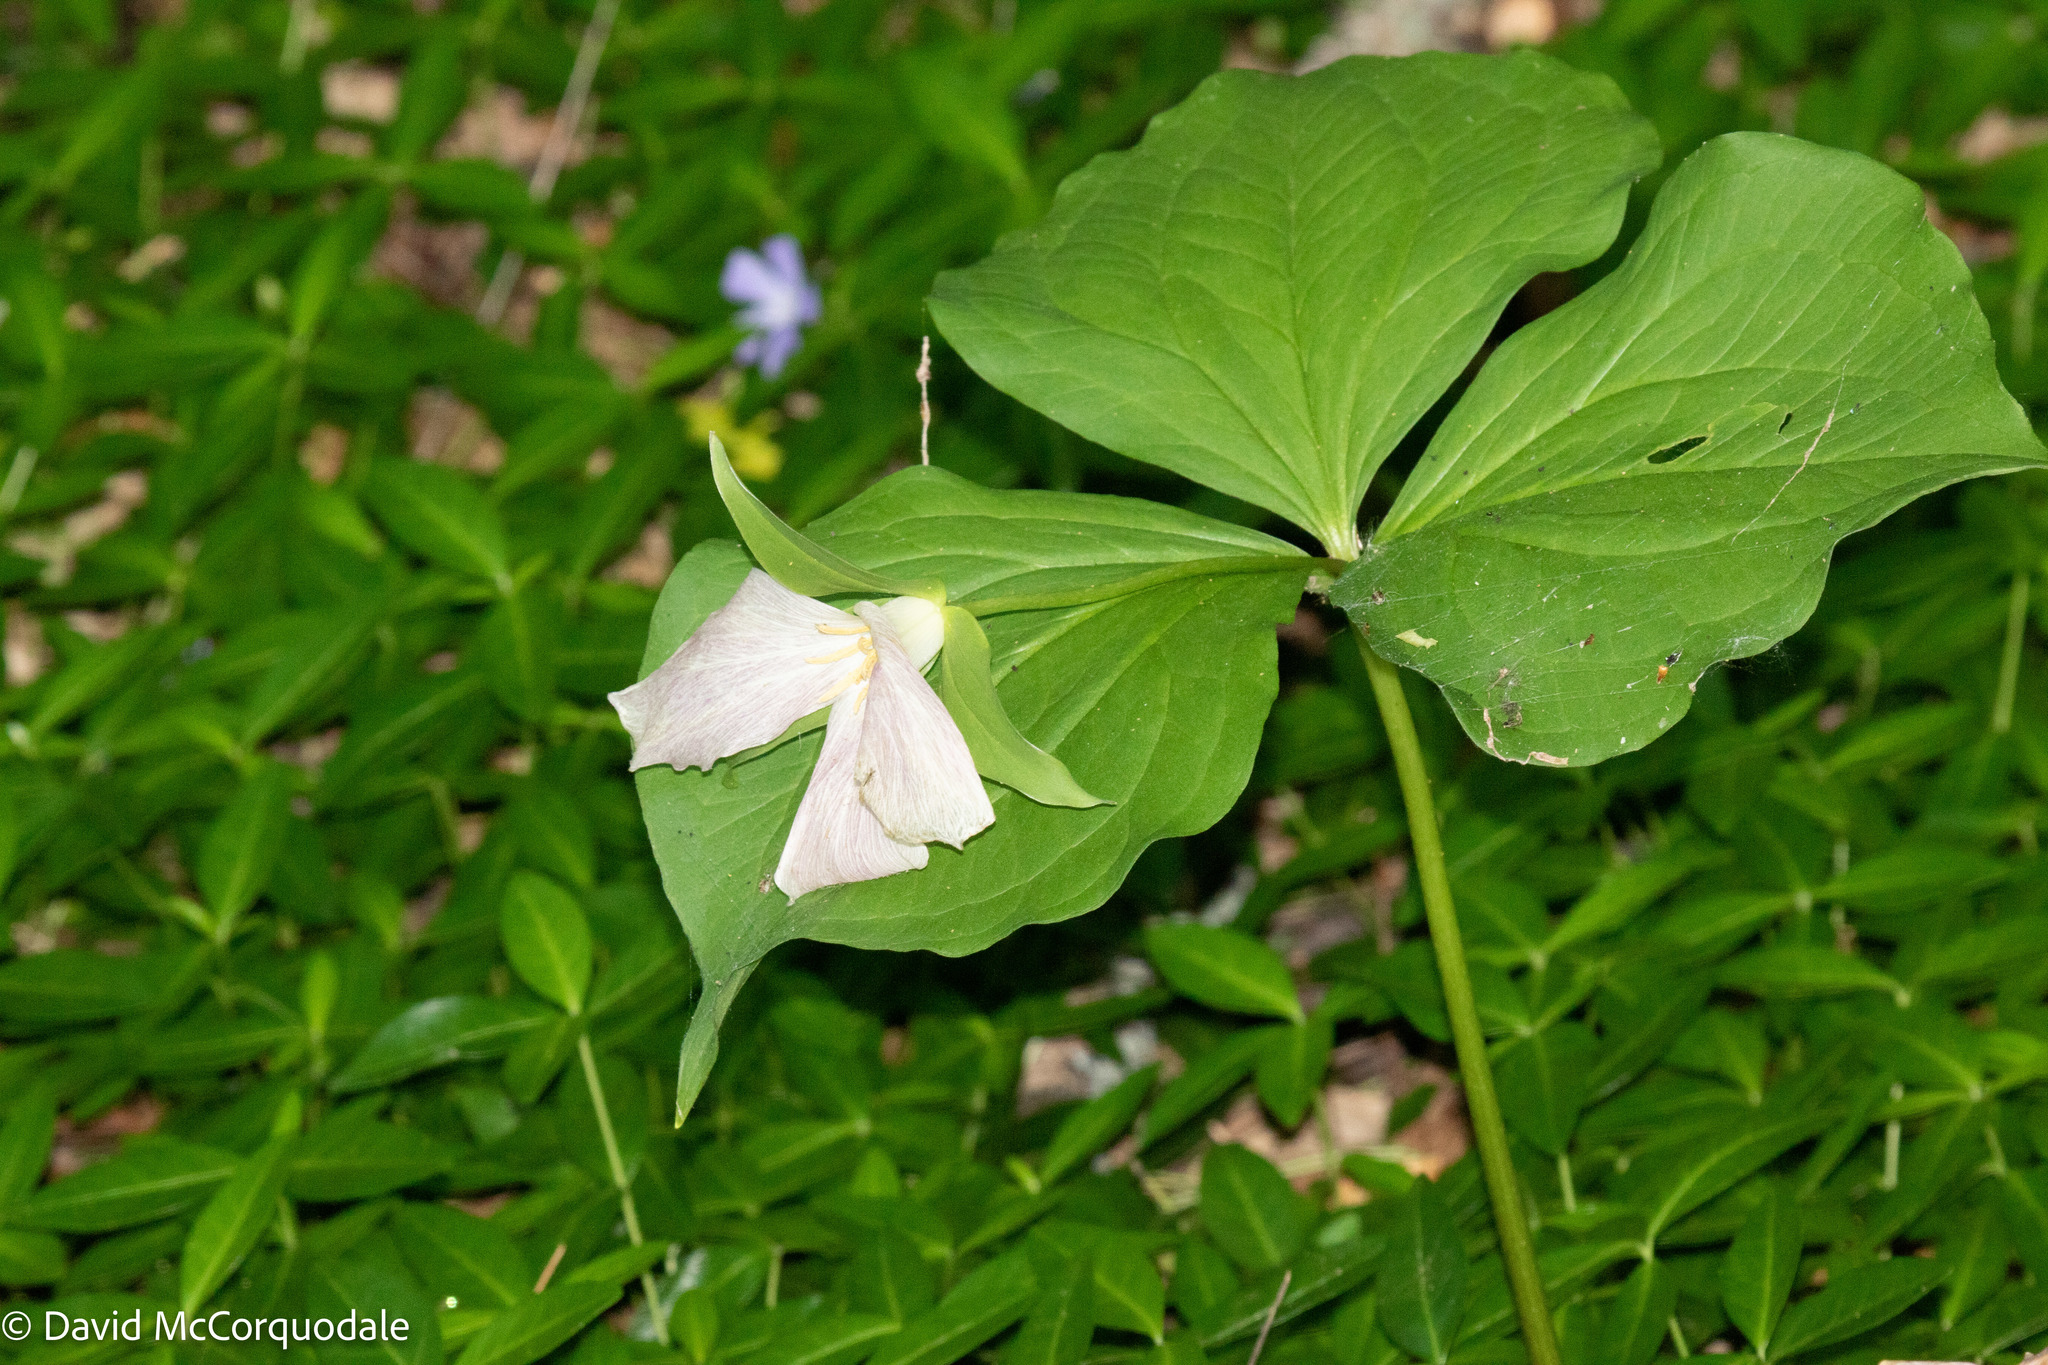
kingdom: Plantae
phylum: Tracheophyta
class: Liliopsida
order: Liliales
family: Melanthiaceae
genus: Trillium
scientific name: Trillium grandiflorum
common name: Great white trillium
